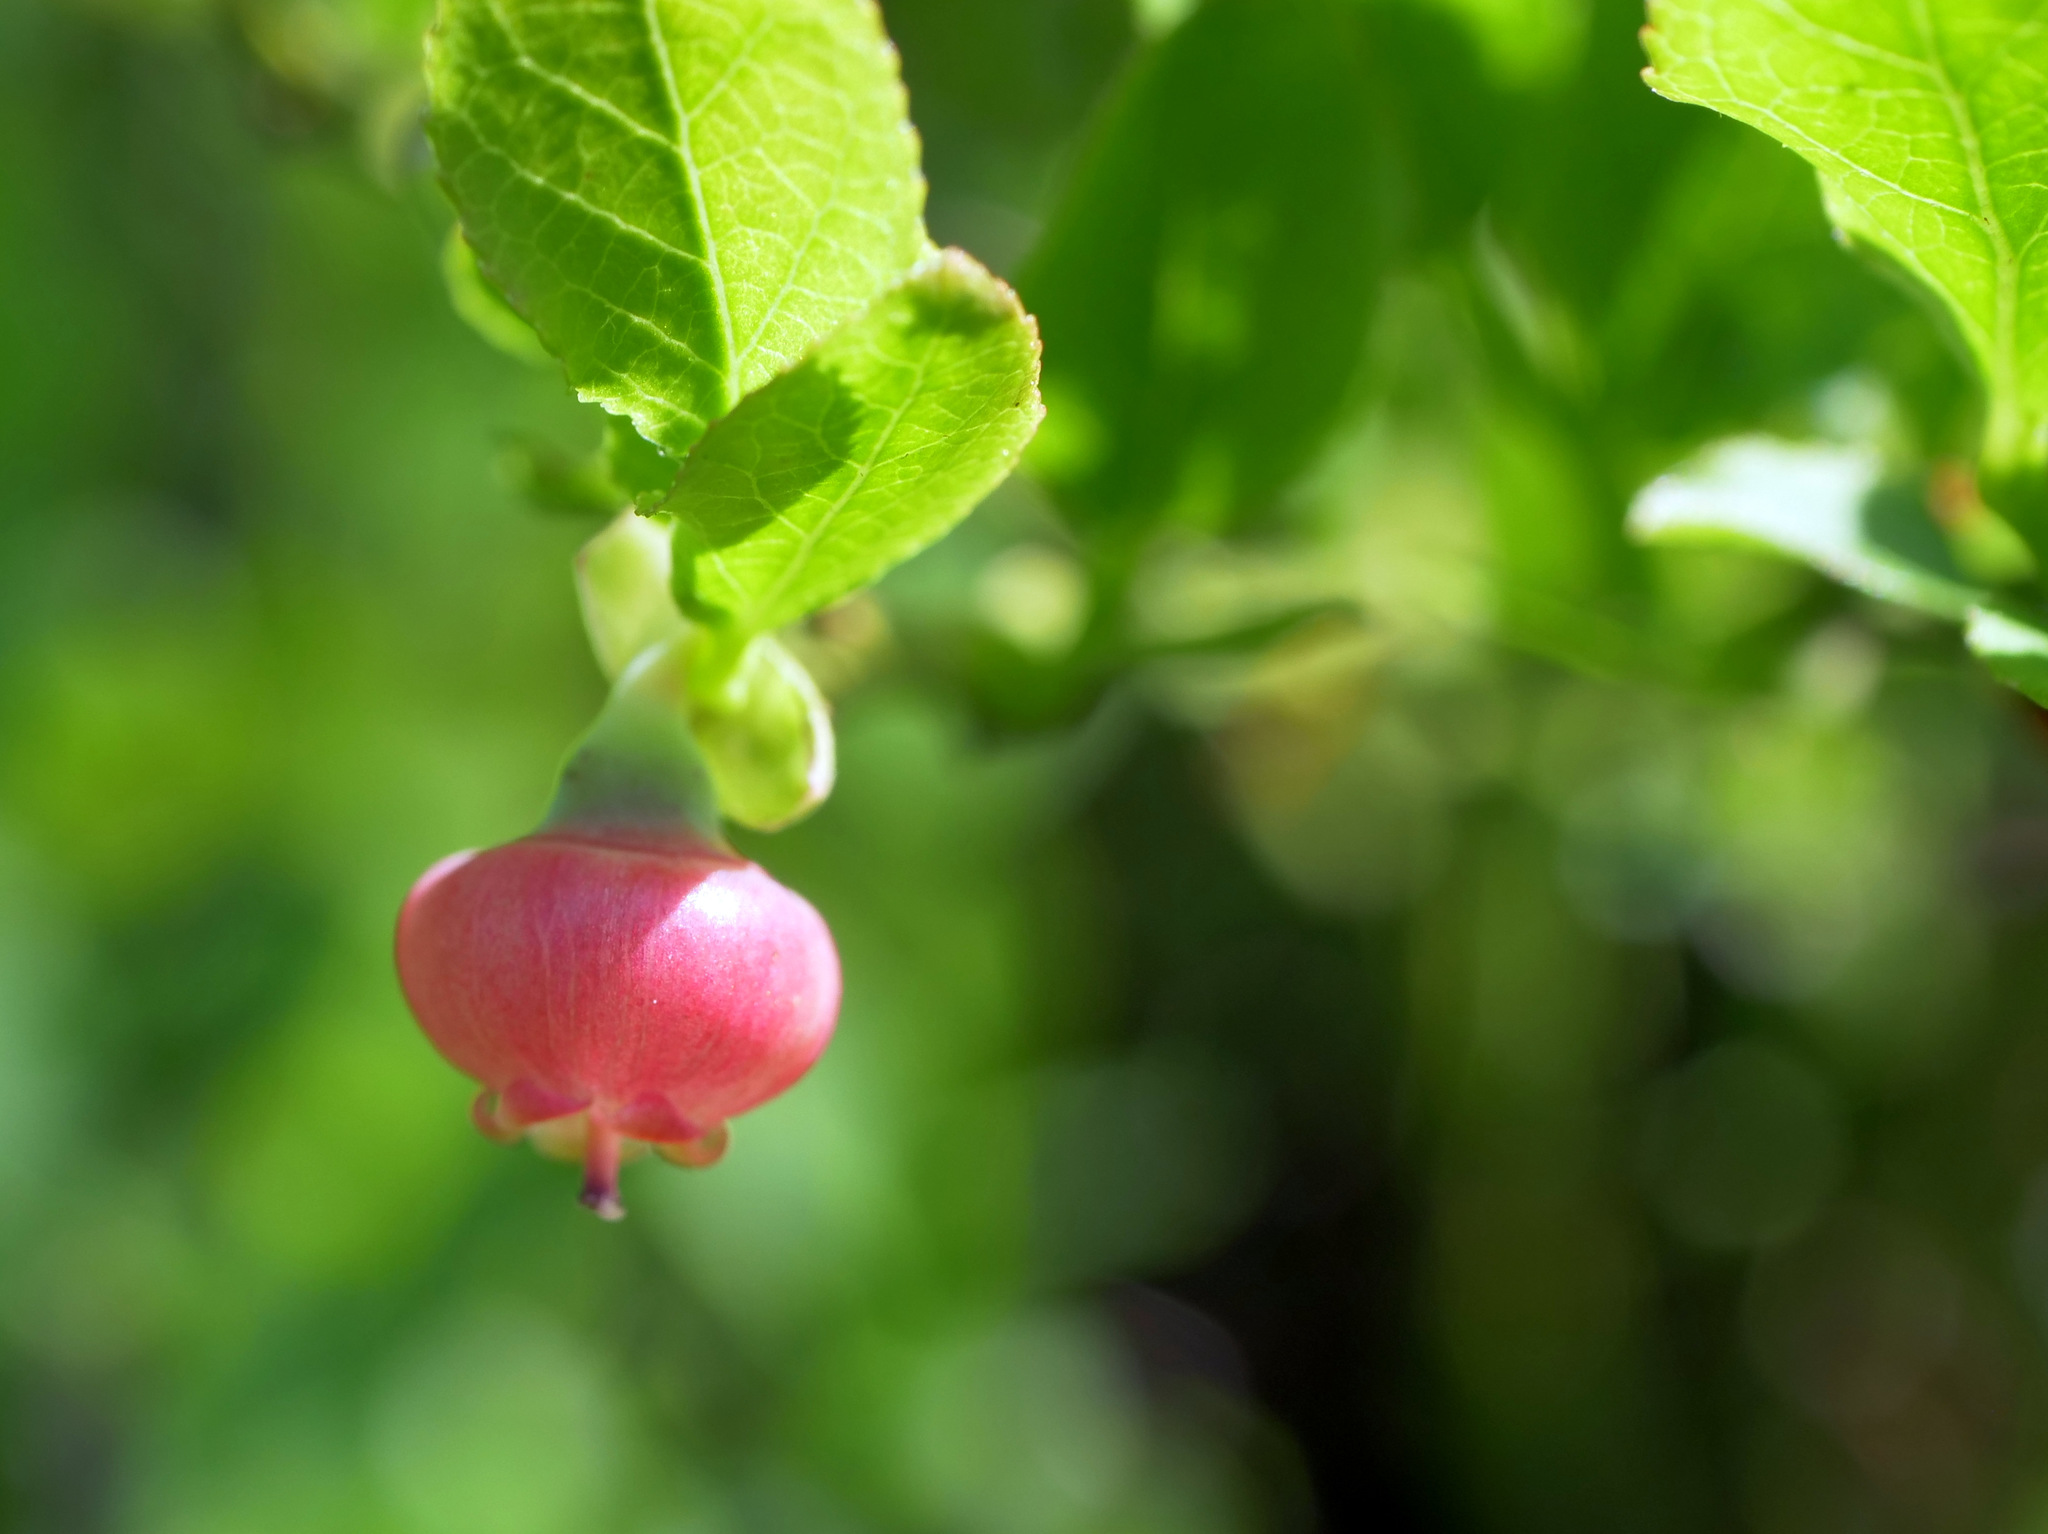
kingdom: Plantae
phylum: Tracheophyta
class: Magnoliopsida
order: Ericales
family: Ericaceae
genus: Vaccinium
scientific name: Vaccinium myrtillus
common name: Bilberry
